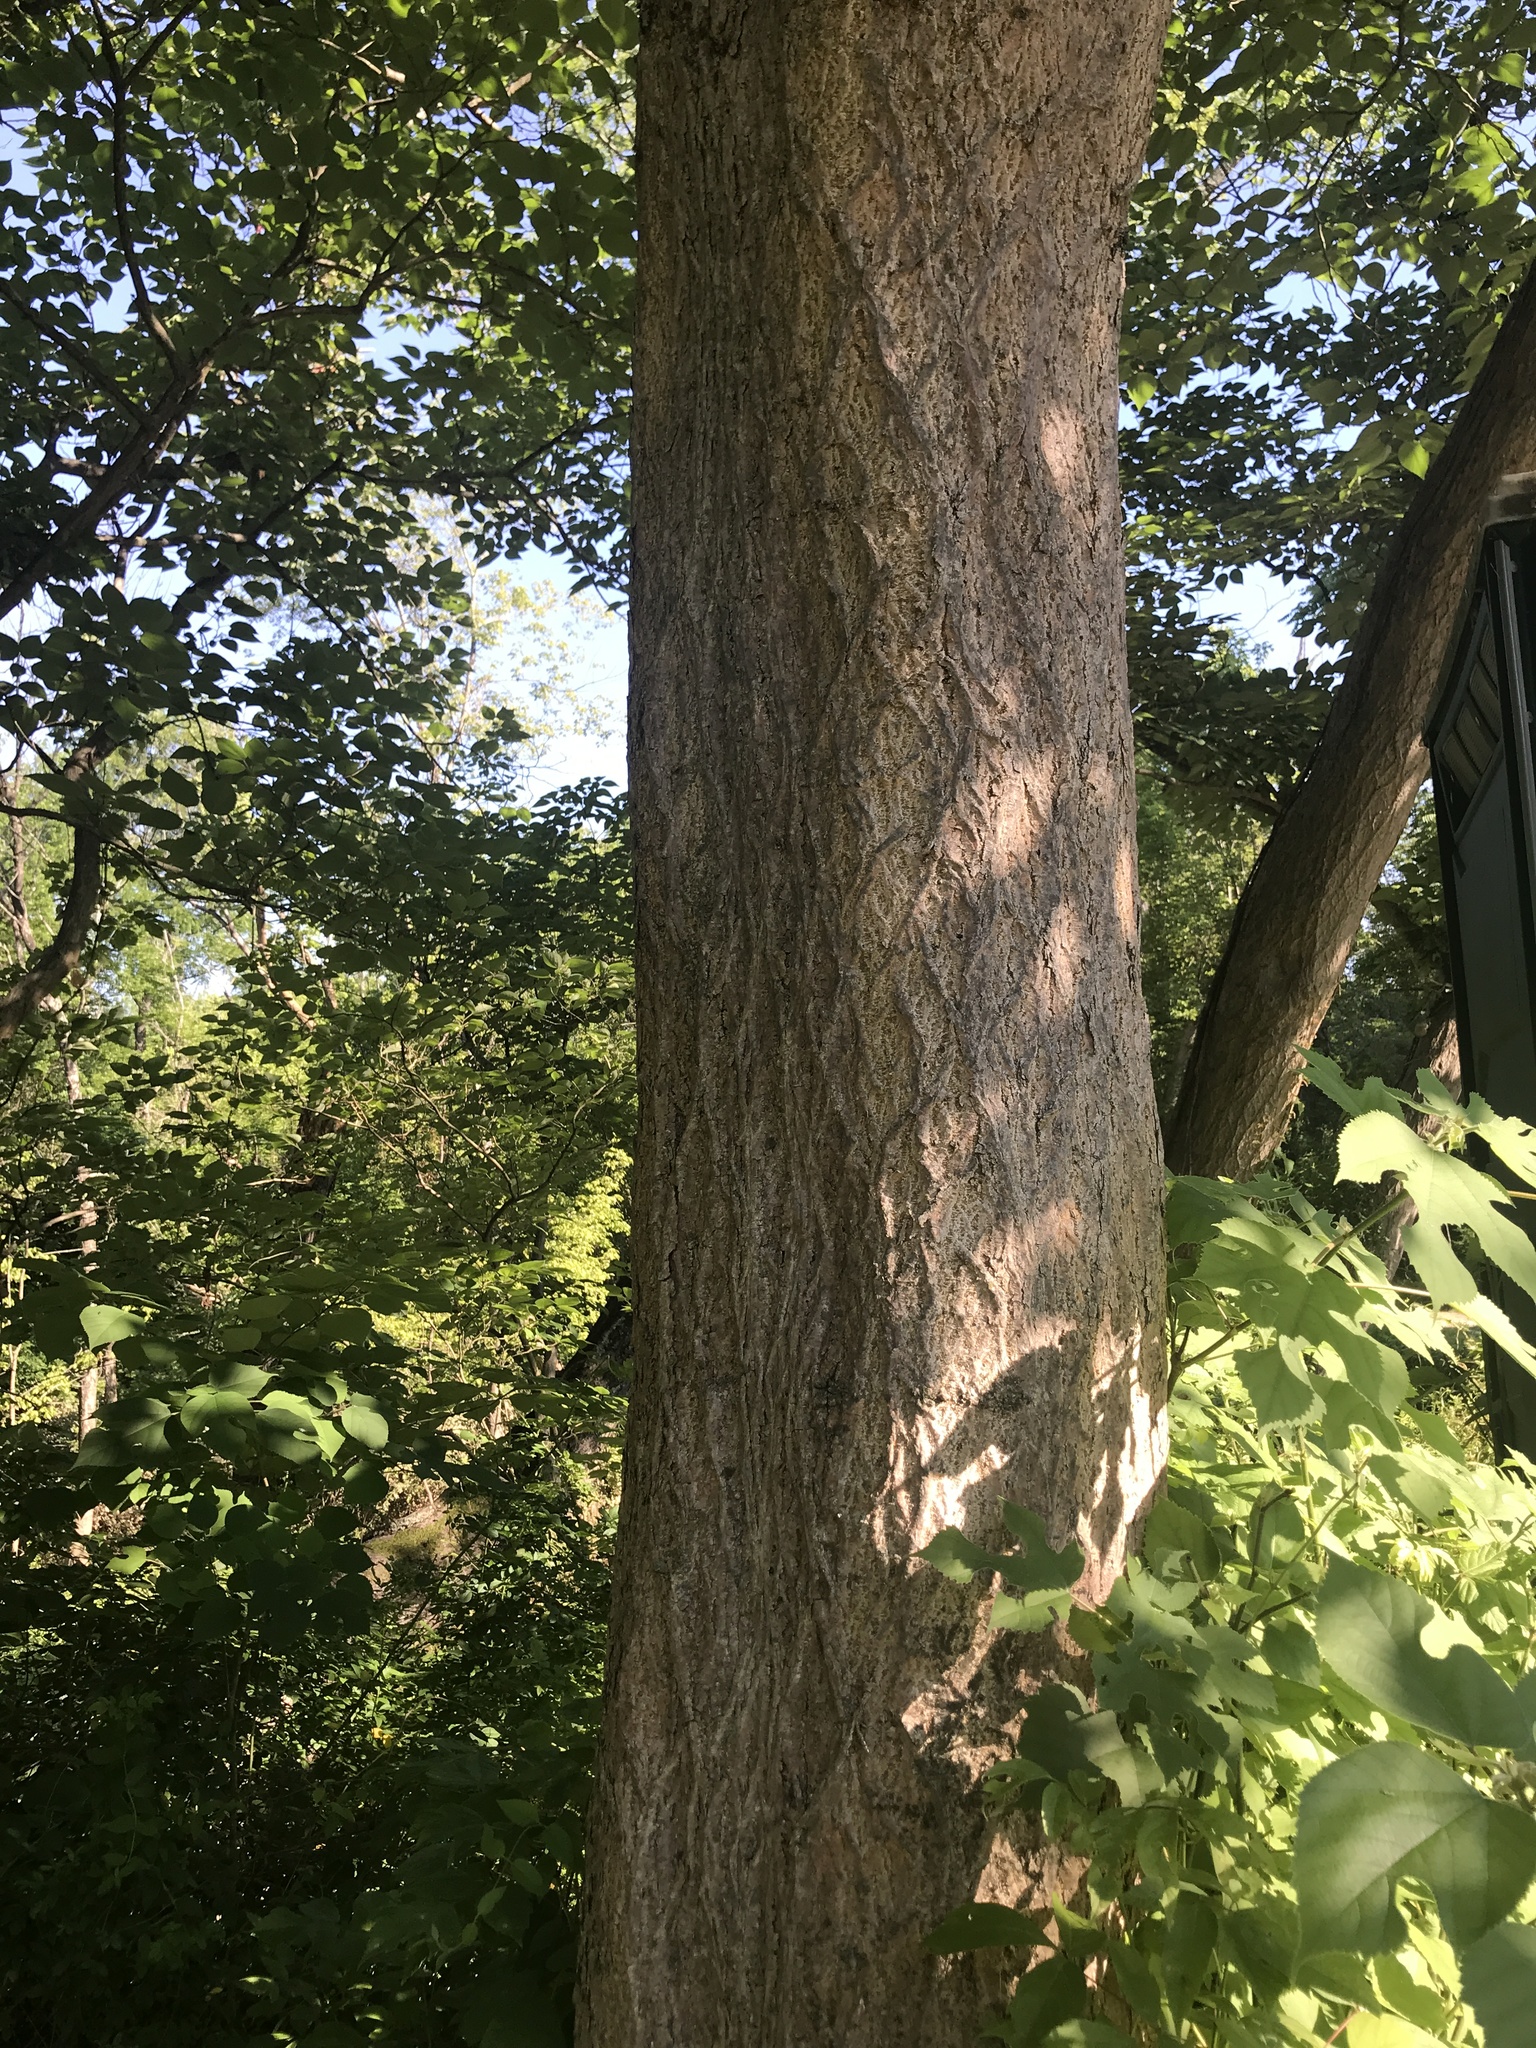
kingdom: Plantae
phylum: Tracheophyta
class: Magnoliopsida
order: Rosales
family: Moraceae
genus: Broussonetia
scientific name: Broussonetia papyrifera
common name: Paper mulberry
